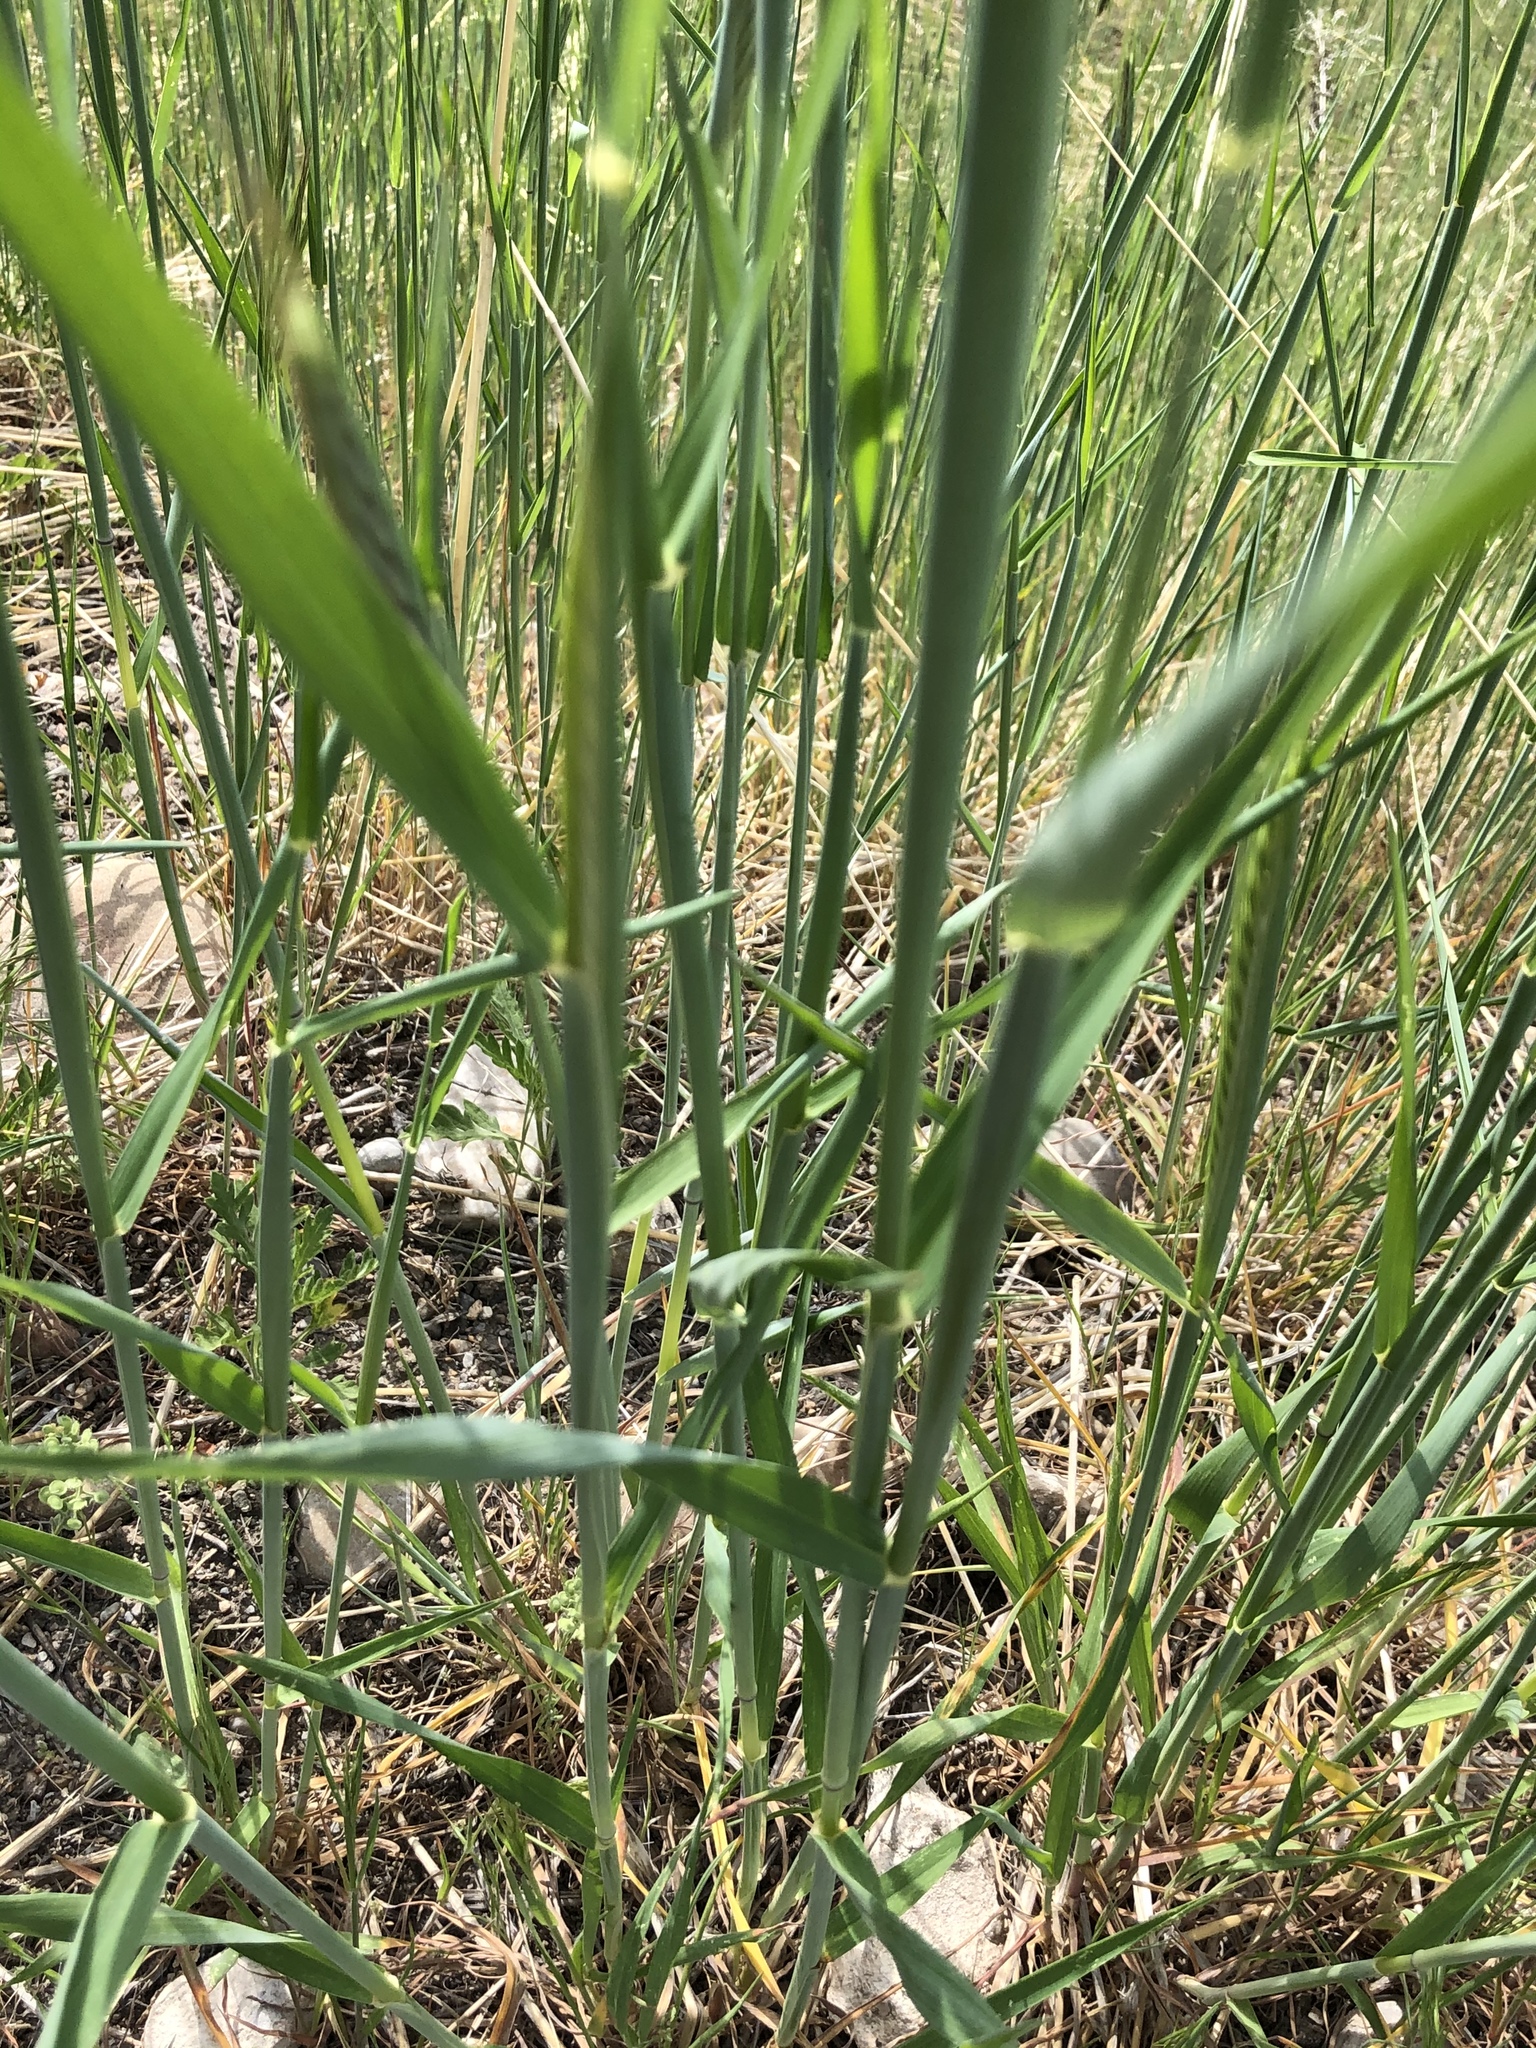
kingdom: Plantae
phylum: Tracheophyta
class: Liliopsida
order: Poales
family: Poaceae
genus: Phragmites
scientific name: Phragmites australis
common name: Common reed
